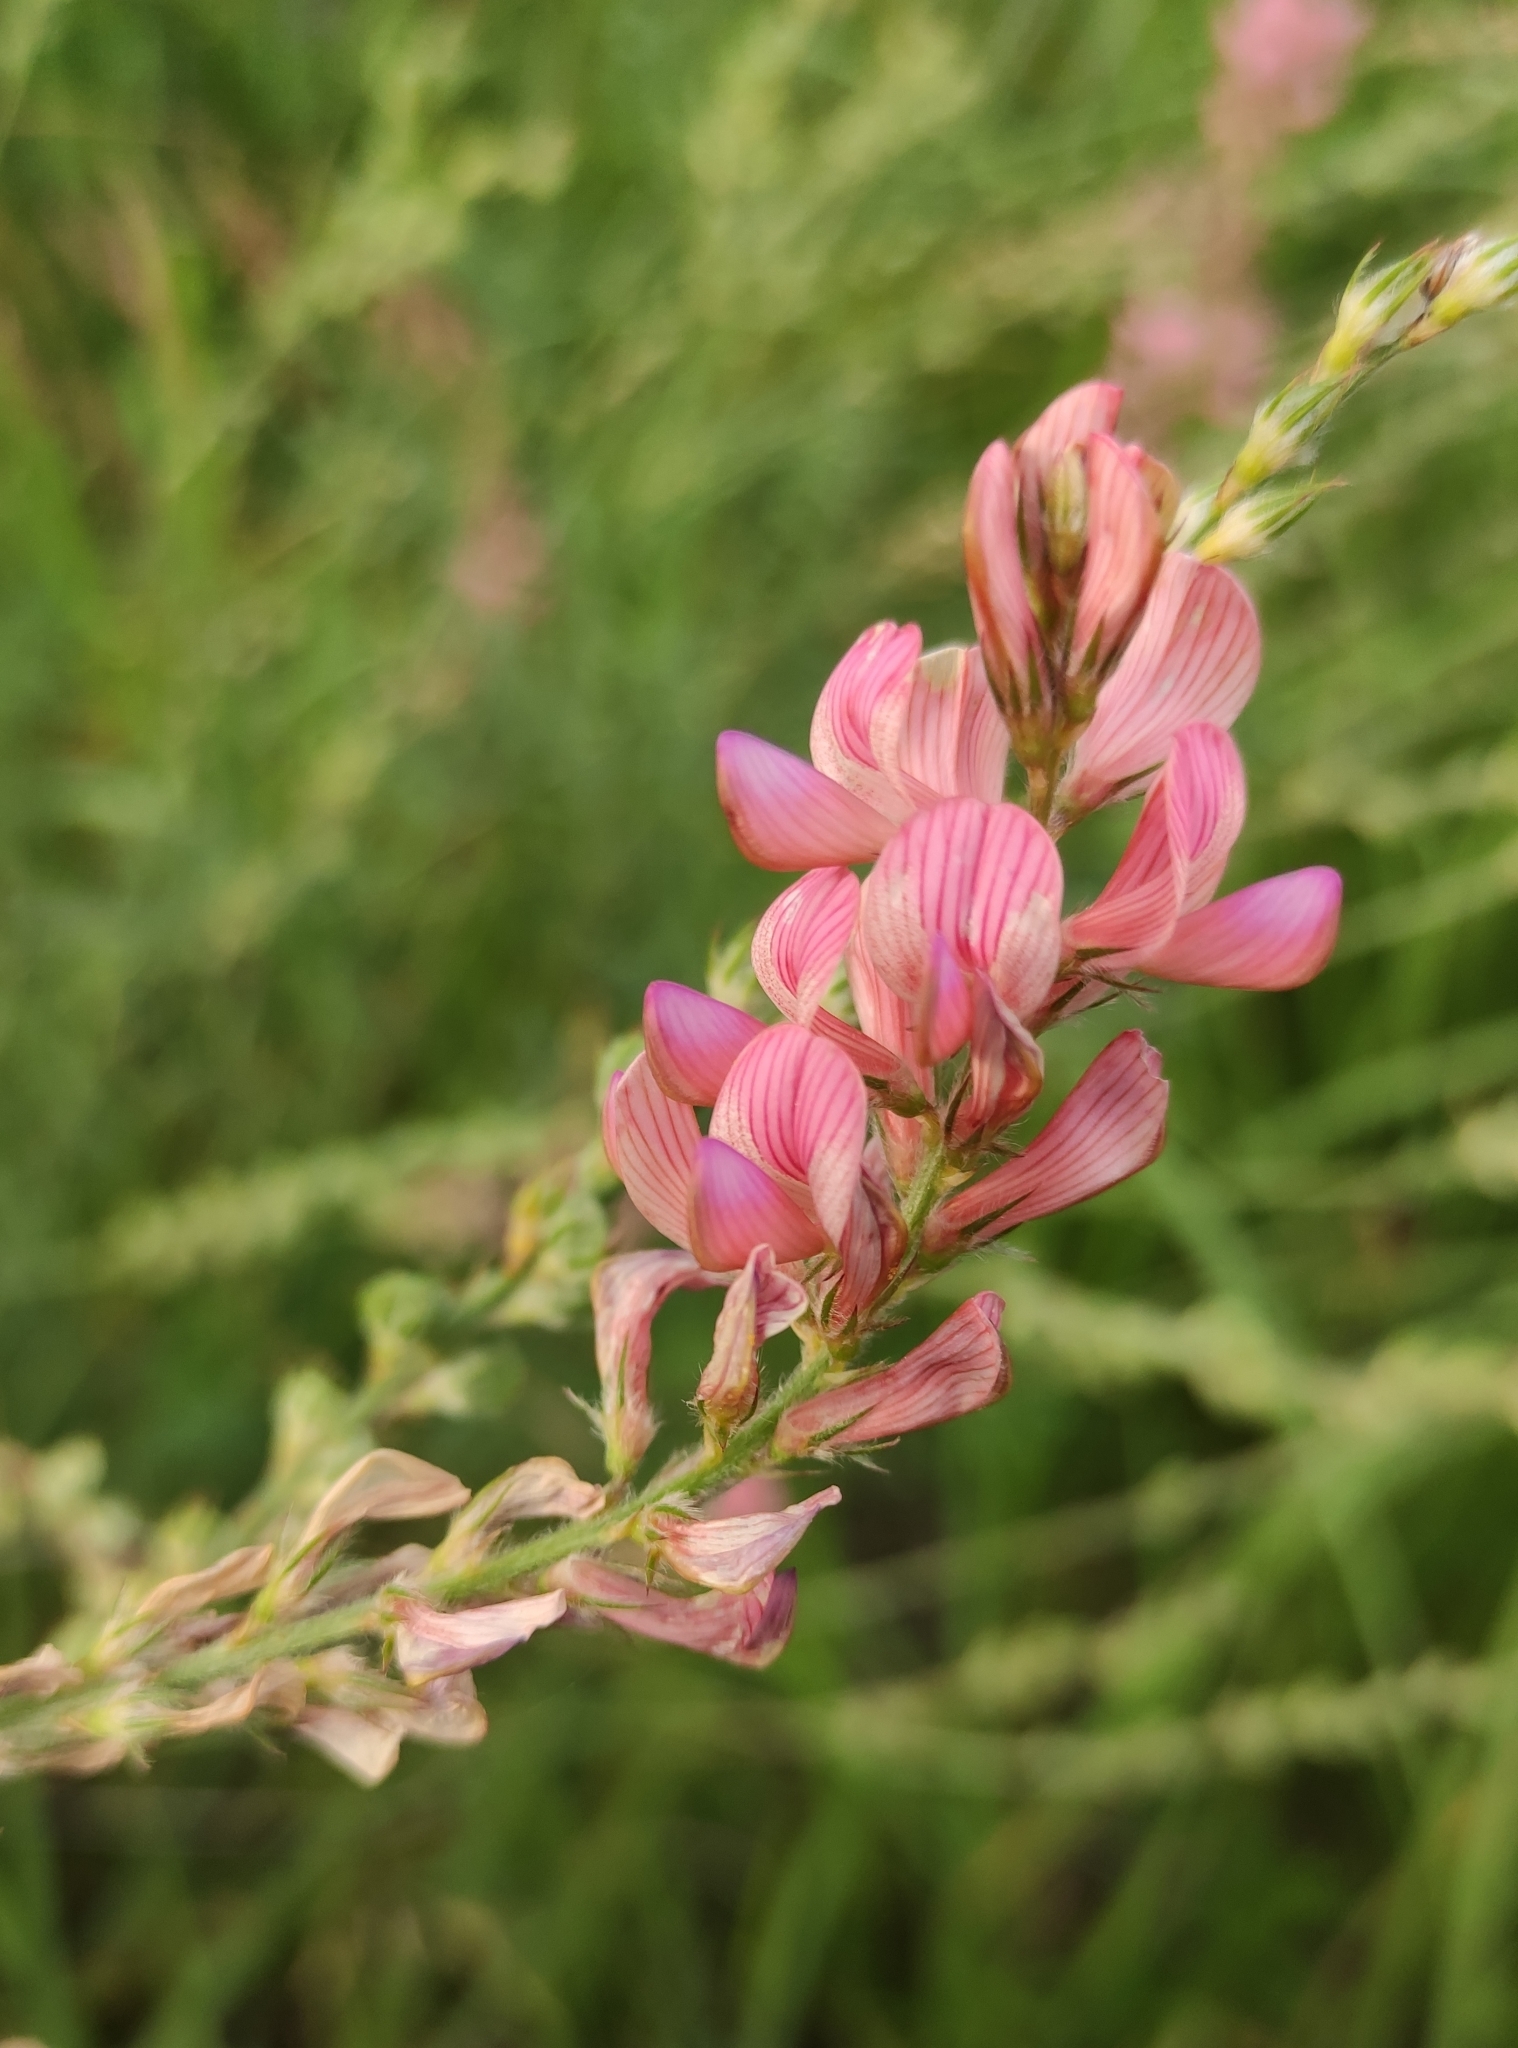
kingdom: Plantae
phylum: Tracheophyta
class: Magnoliopsida
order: Fabales
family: Fabaceae
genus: Onobrychis
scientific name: Onobrychis arenaria
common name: Sand esparcet
